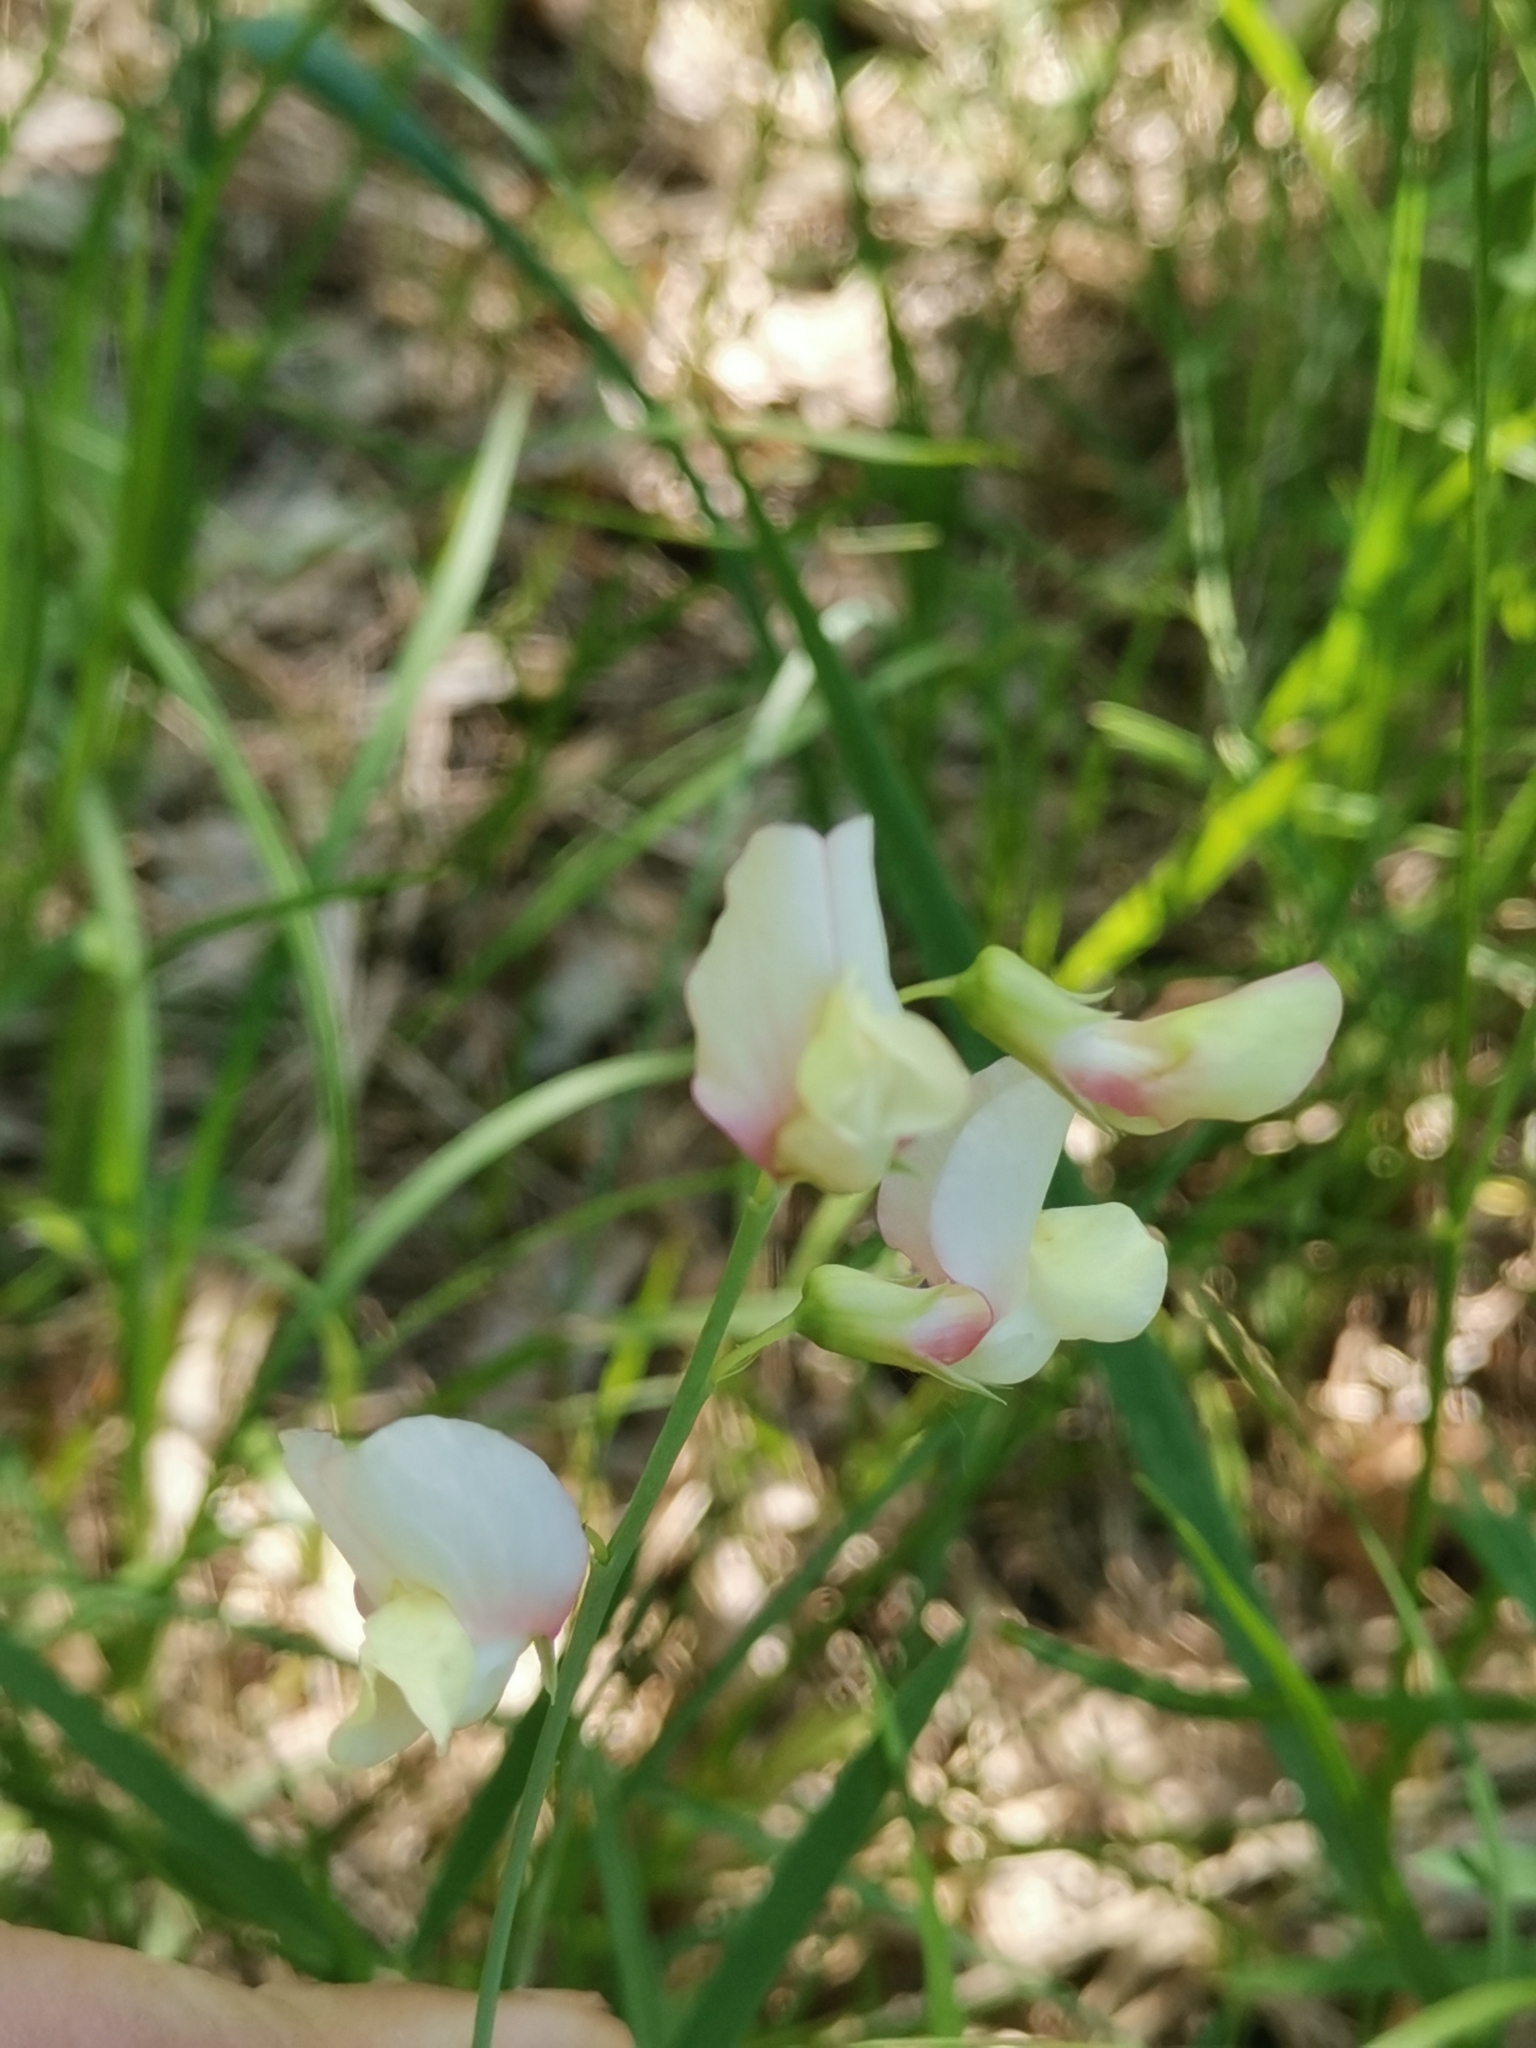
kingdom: Plantae
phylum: Tracheophyta
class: Magnoliopsida
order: Fabales
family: Fabaceae
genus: Lathyrus
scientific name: Lathyrus pannonicus
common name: Pea
